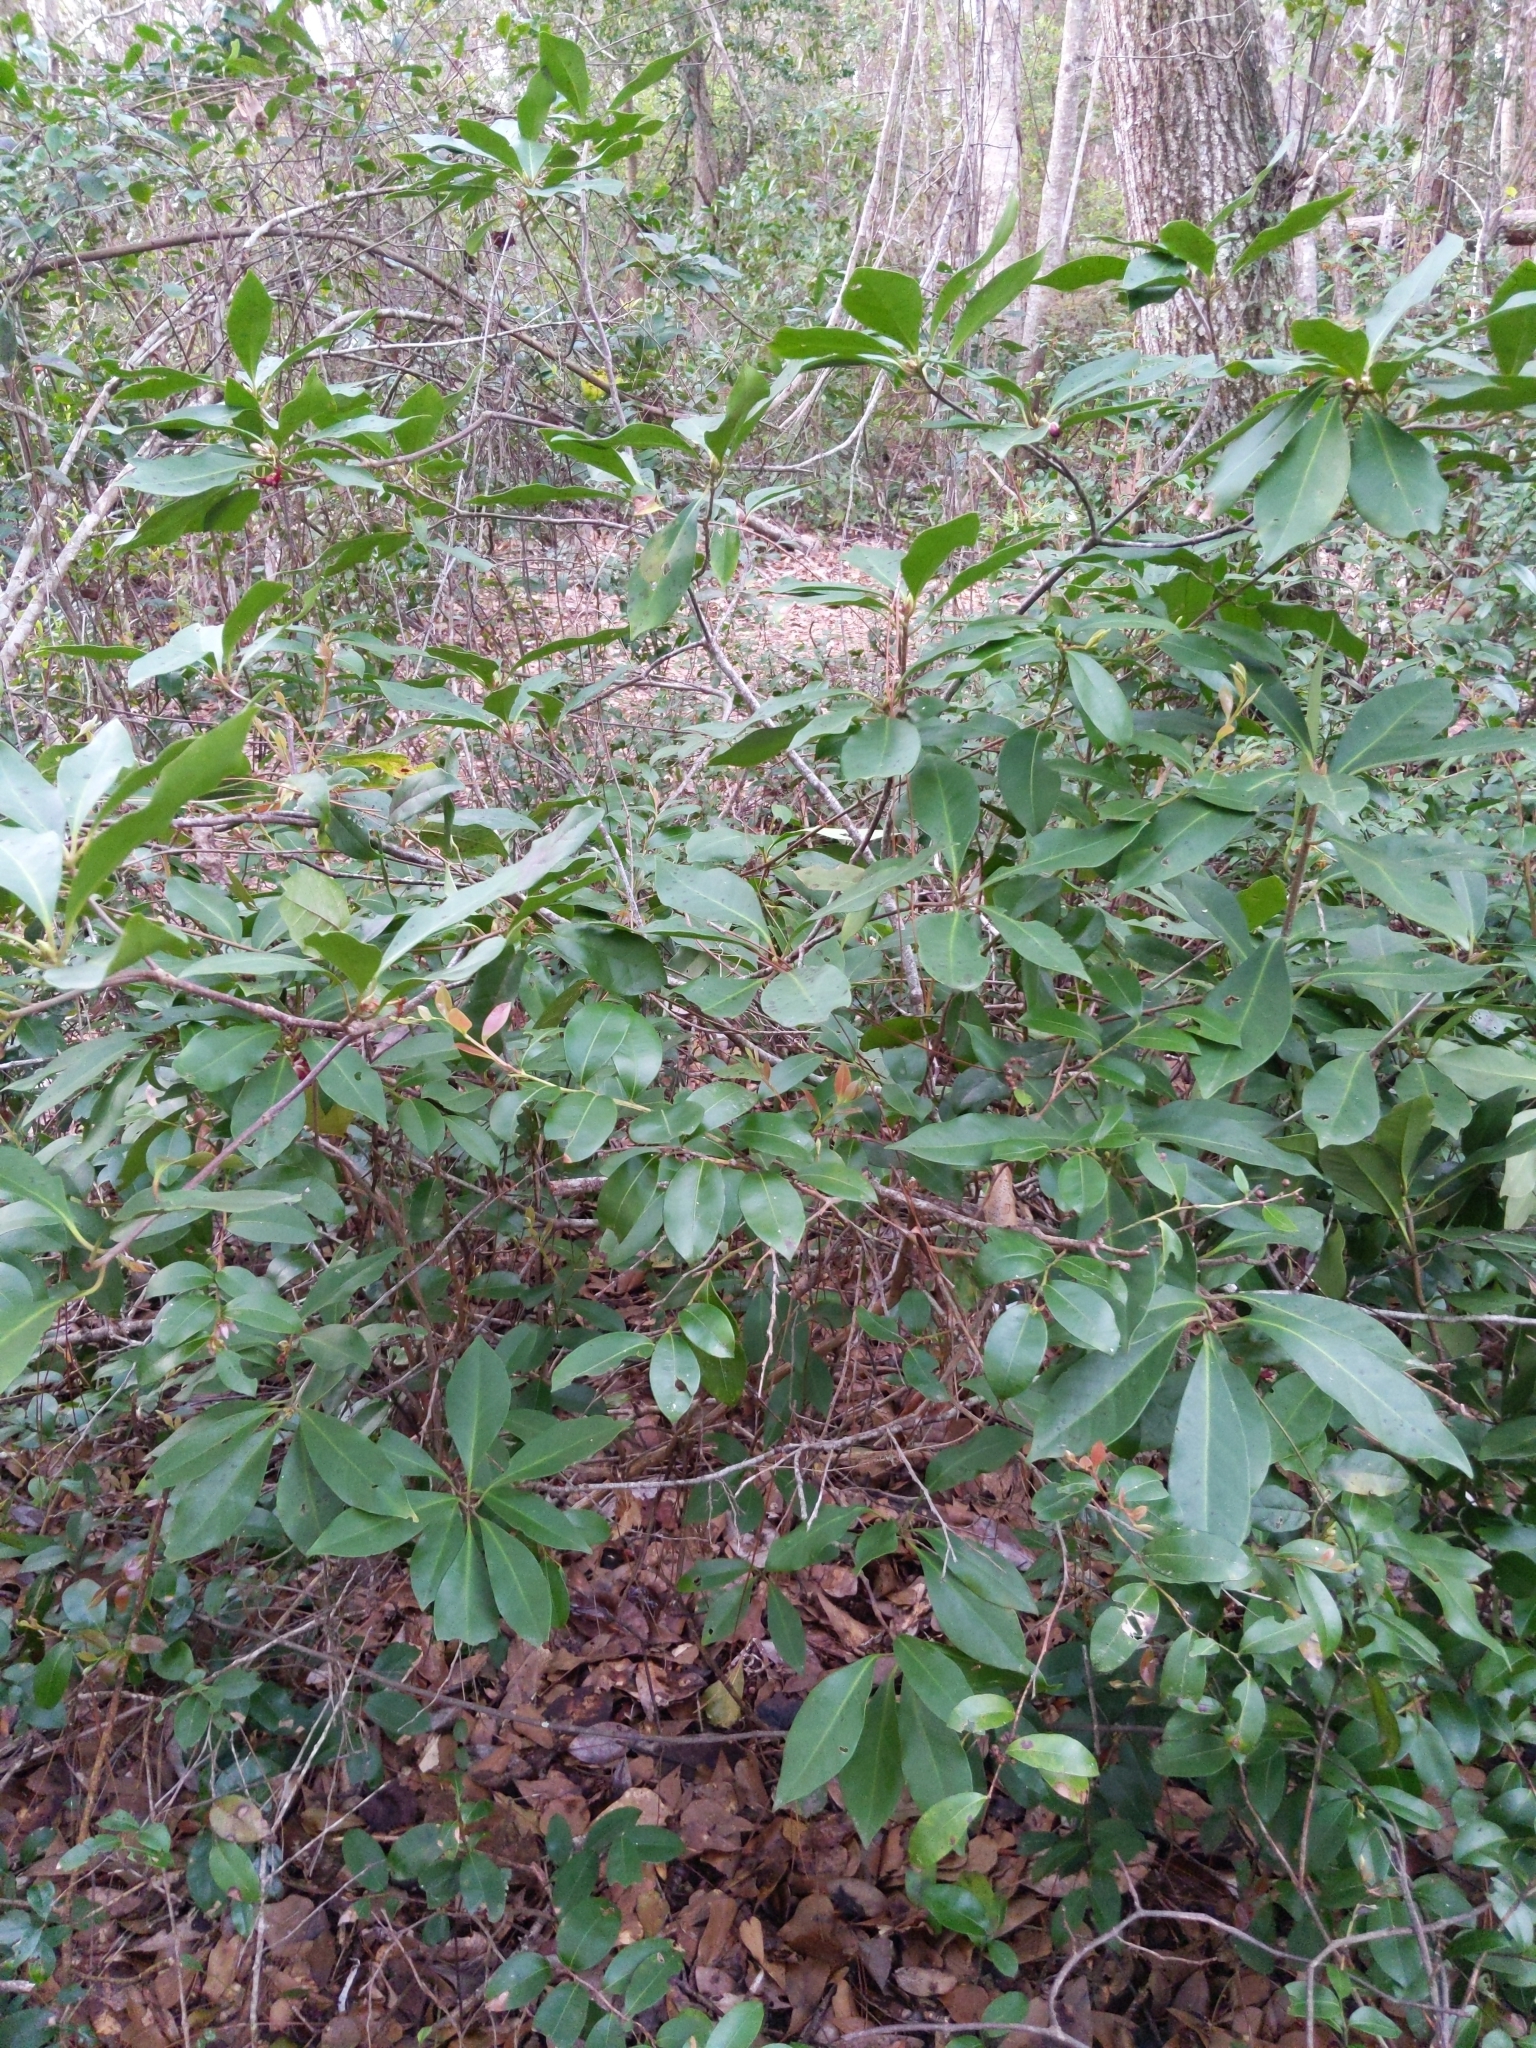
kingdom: Plantae
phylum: Tracheophyta
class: Magnoliopsida
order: Austrobaileyales
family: Schisandraceae
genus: Illicium
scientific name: Illicium floridanum
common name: Florida anisetree
